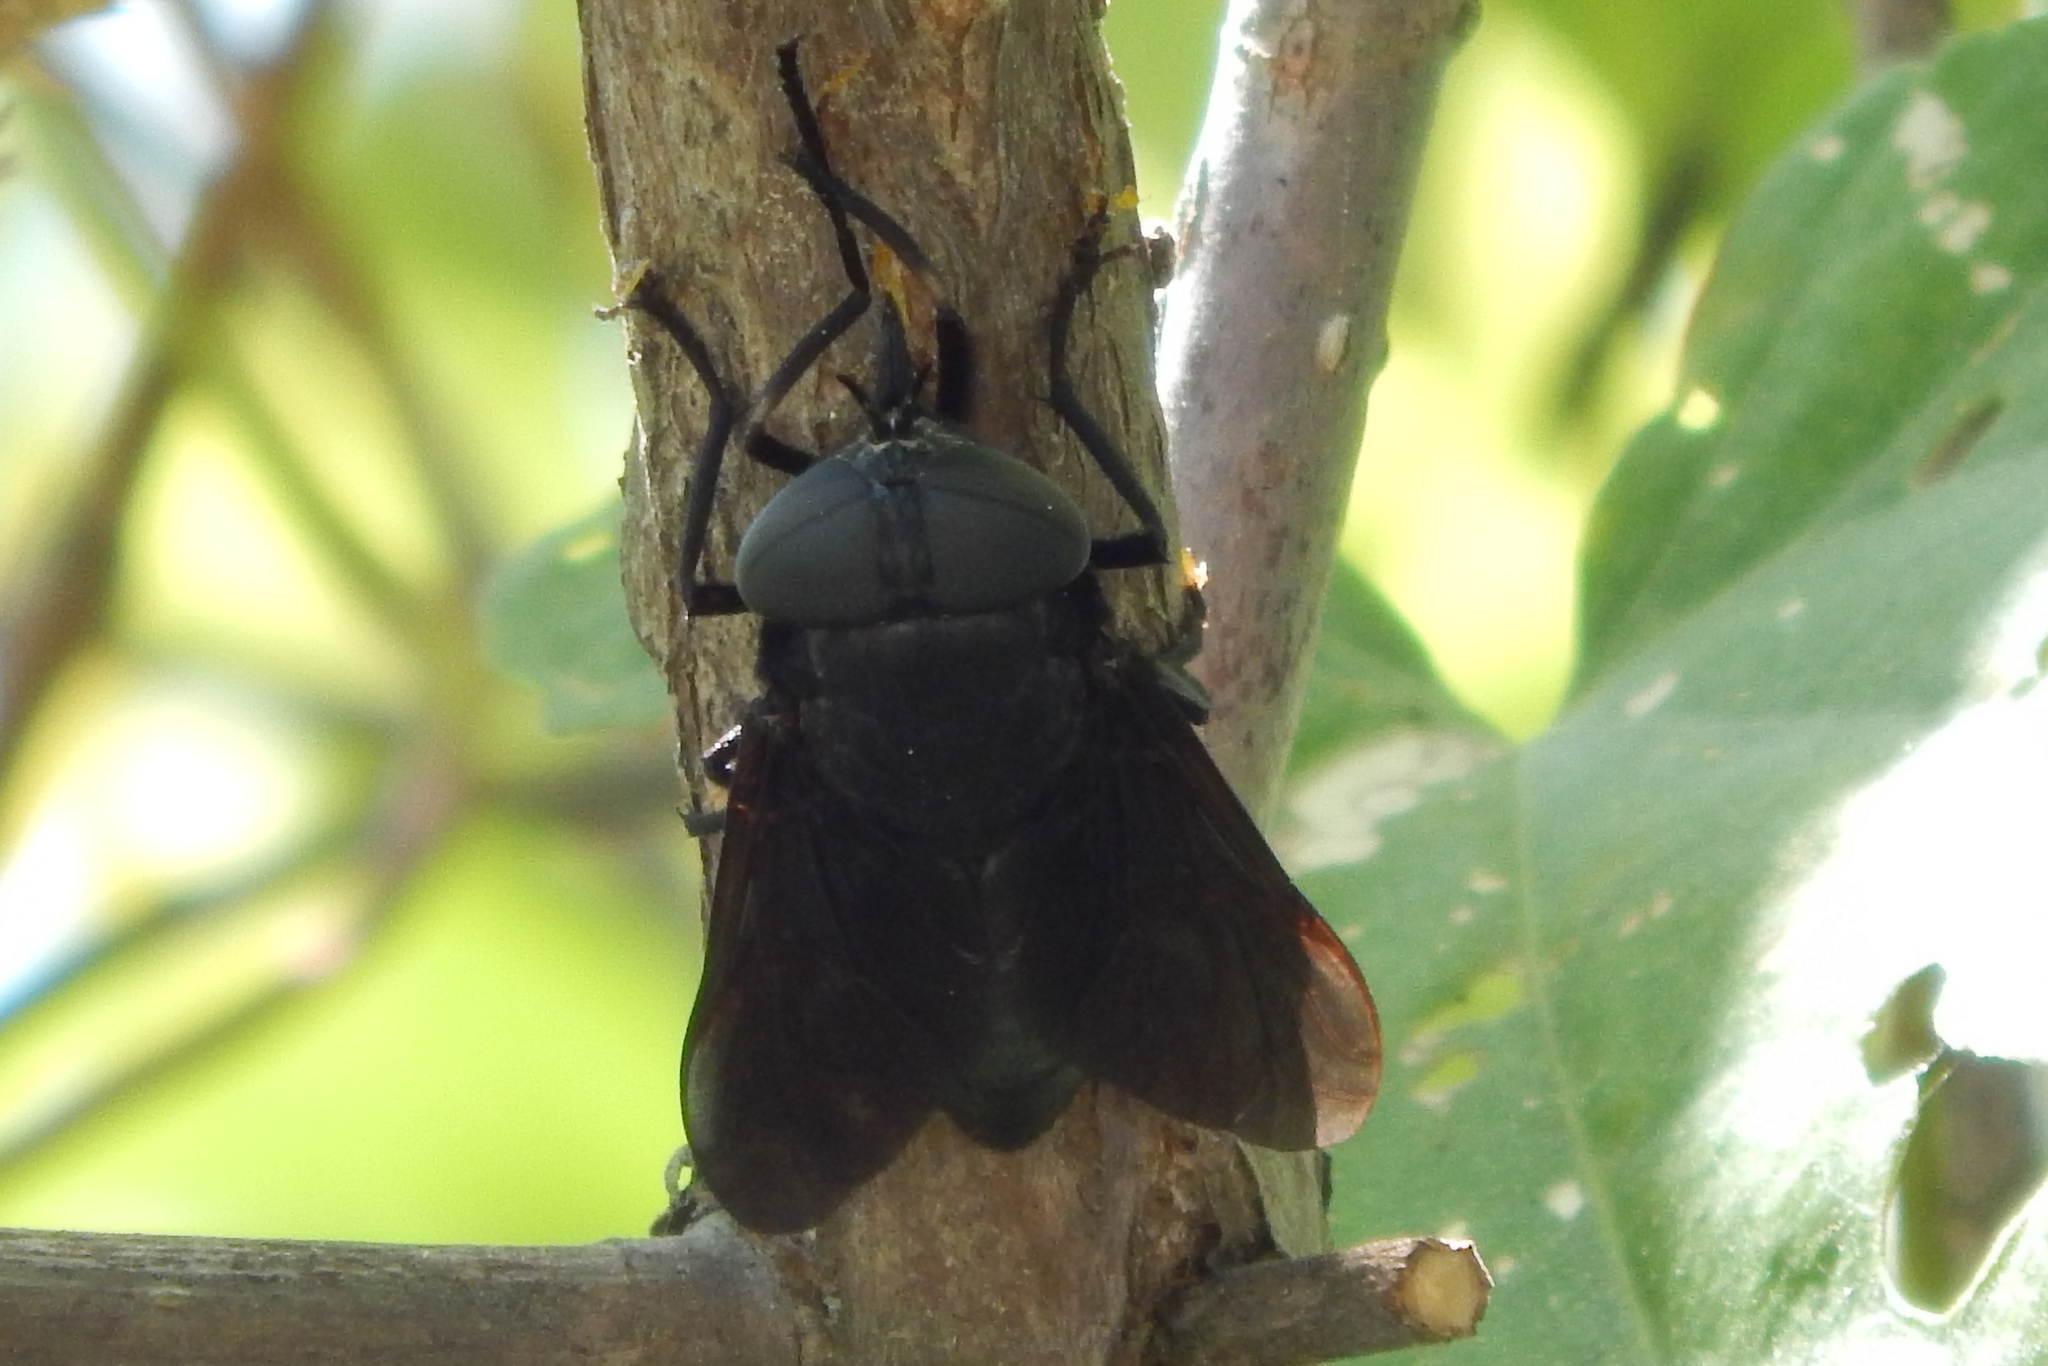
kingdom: Animalia
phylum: Arthropoda
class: Insecta
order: Diptera
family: Tabanidae
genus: Tabanus
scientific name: Tabanus atratus
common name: Black horse fly
